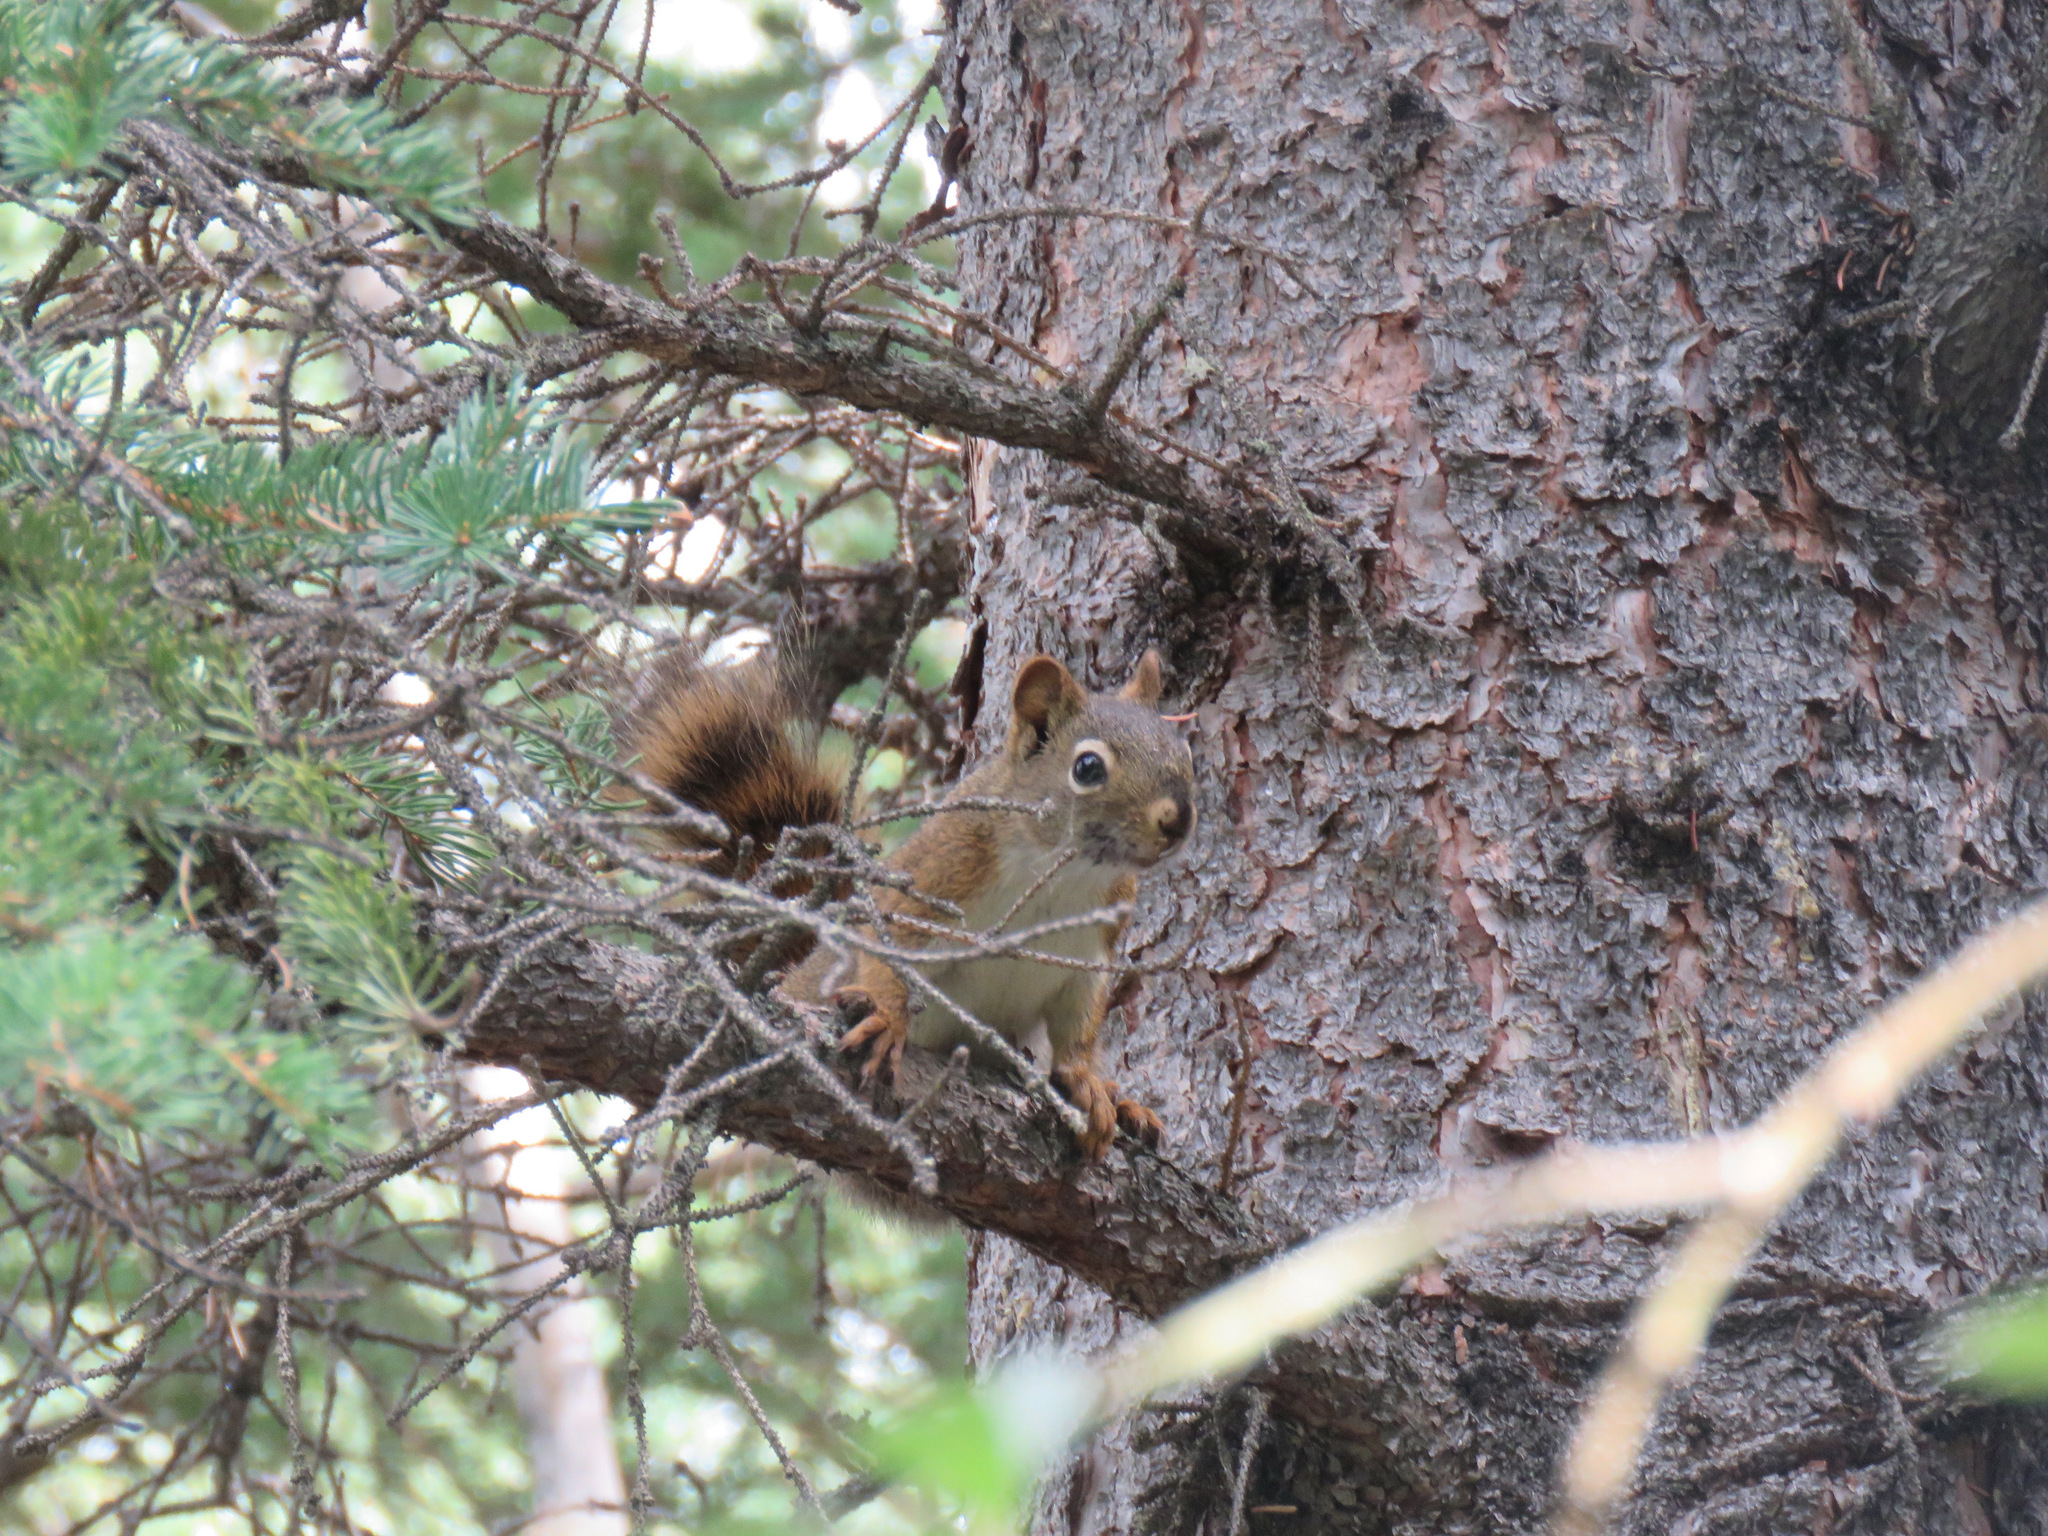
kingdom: Animalia
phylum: Chordata
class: Mammalia
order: Rodentia
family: Sciuridae
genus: Tamiasciurus
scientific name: Tamiasciurus hudsonicus
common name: Red squirrel
